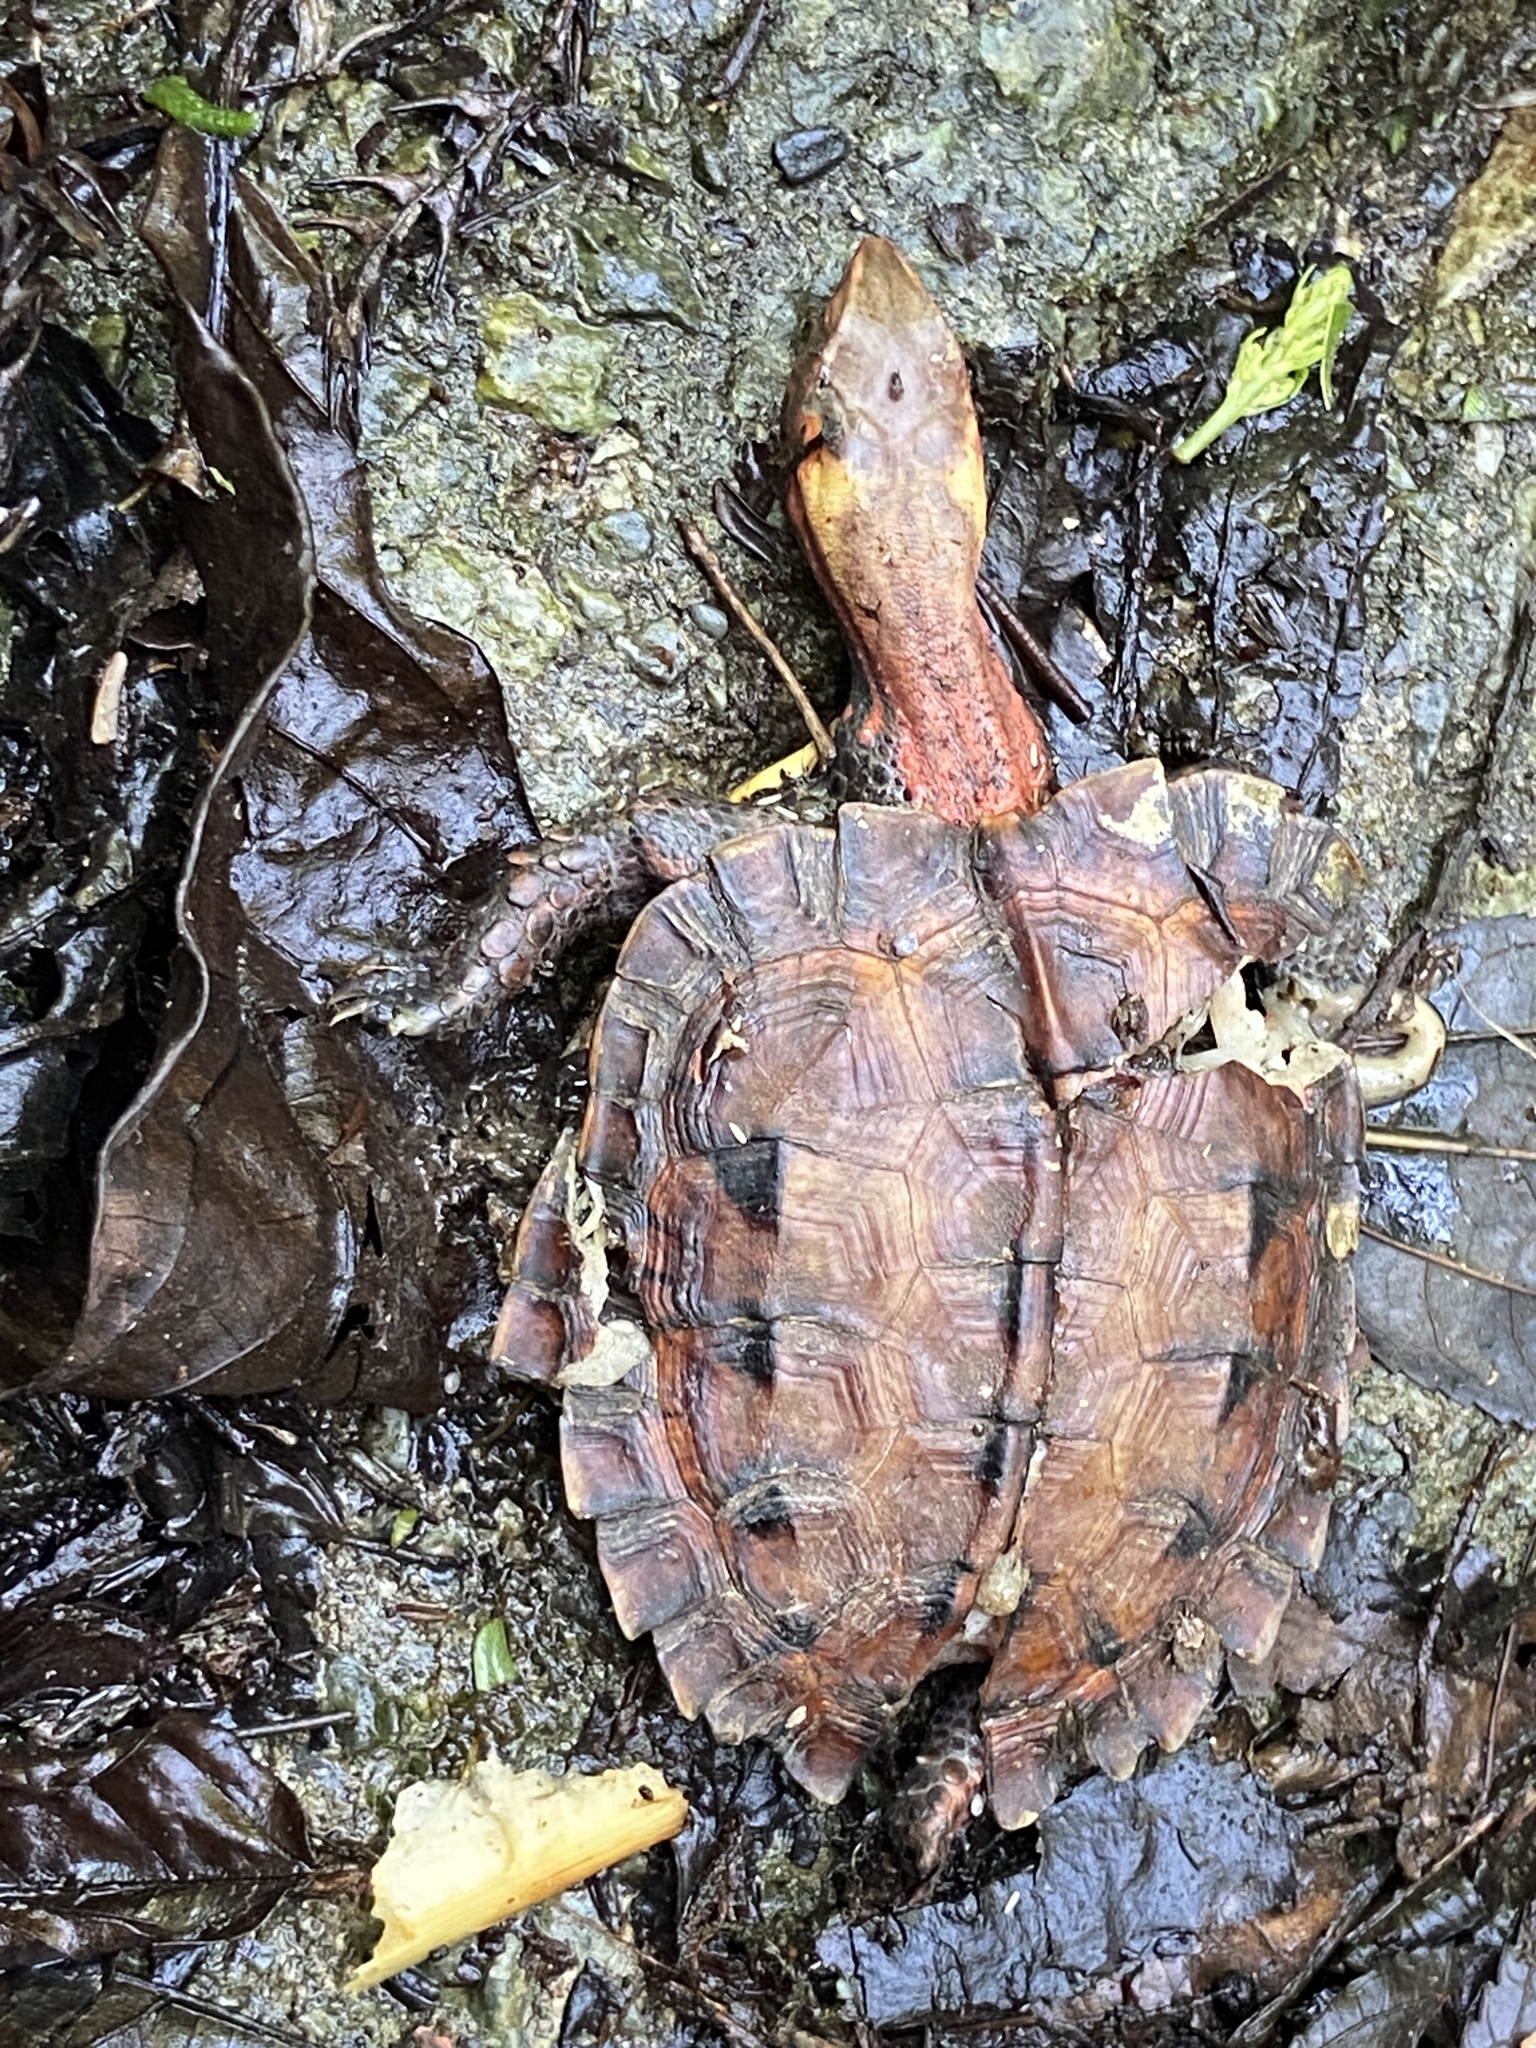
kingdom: Animalia
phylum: Chordata
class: Testudines
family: Geoemydidae
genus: Geoemyda
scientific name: Geoemyda japonica
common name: Okinawa black-breasted leaf turtle
